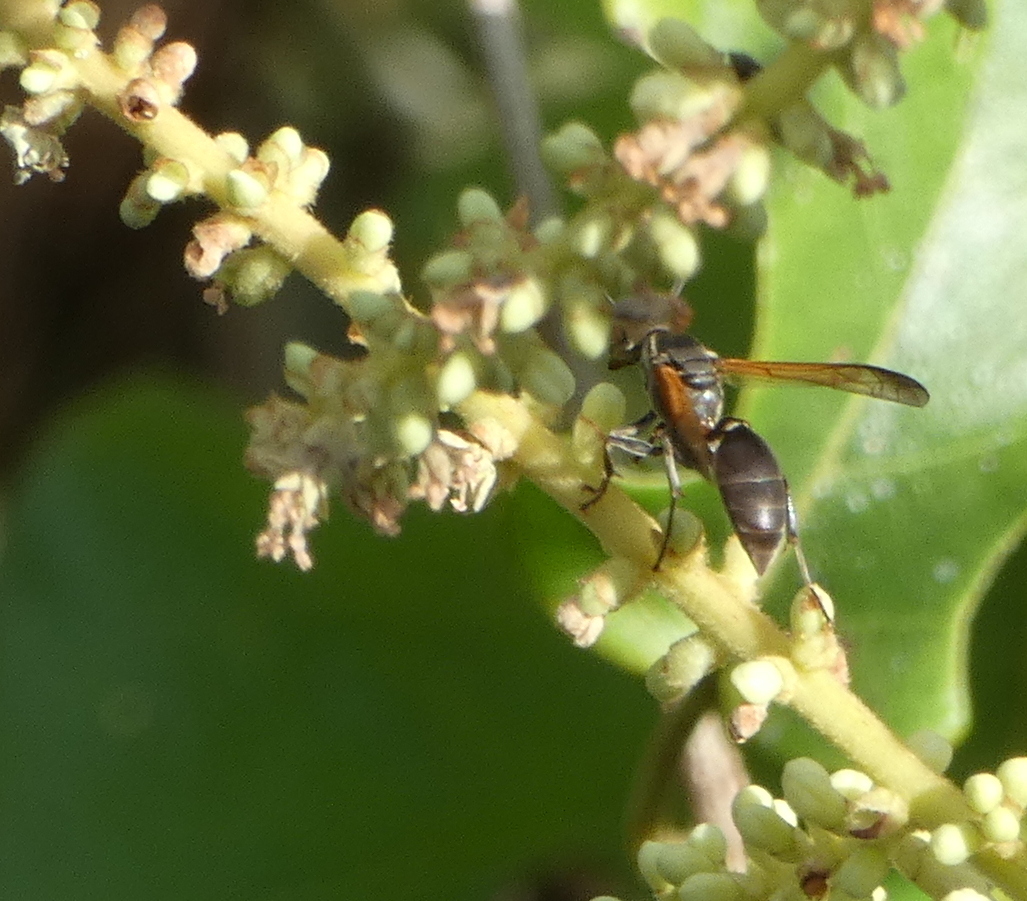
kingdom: Animalia
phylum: Arthropoda
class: Insecta
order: Hymenoptera
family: Eumenidae
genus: Polybia
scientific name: Polybia rejecta
